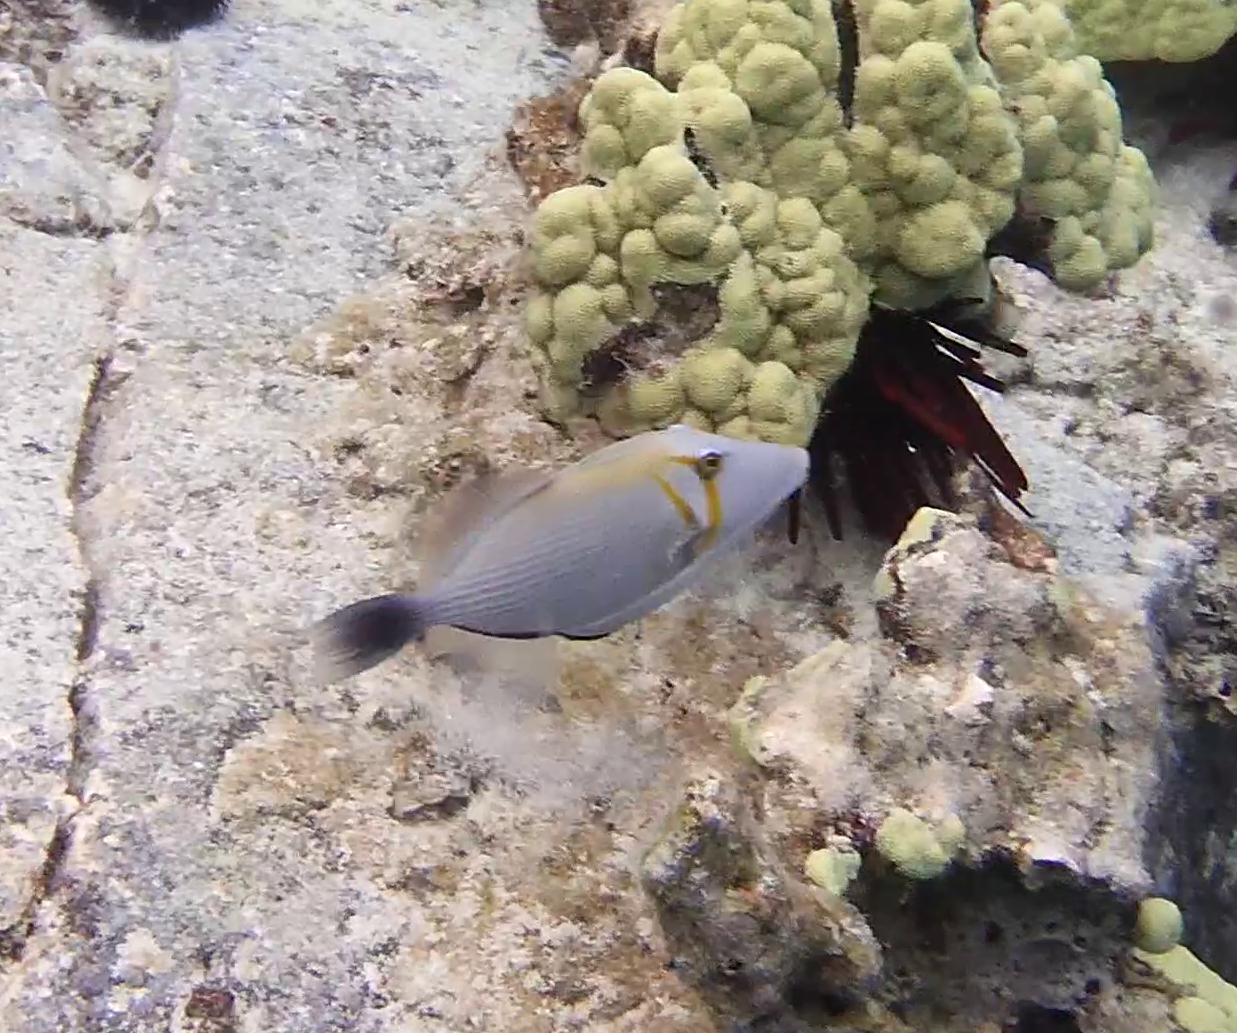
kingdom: Animalia
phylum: Chordata
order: Tetraodontiformes
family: Balistidae
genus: Sufflamen
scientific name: Sufflamen bursa
